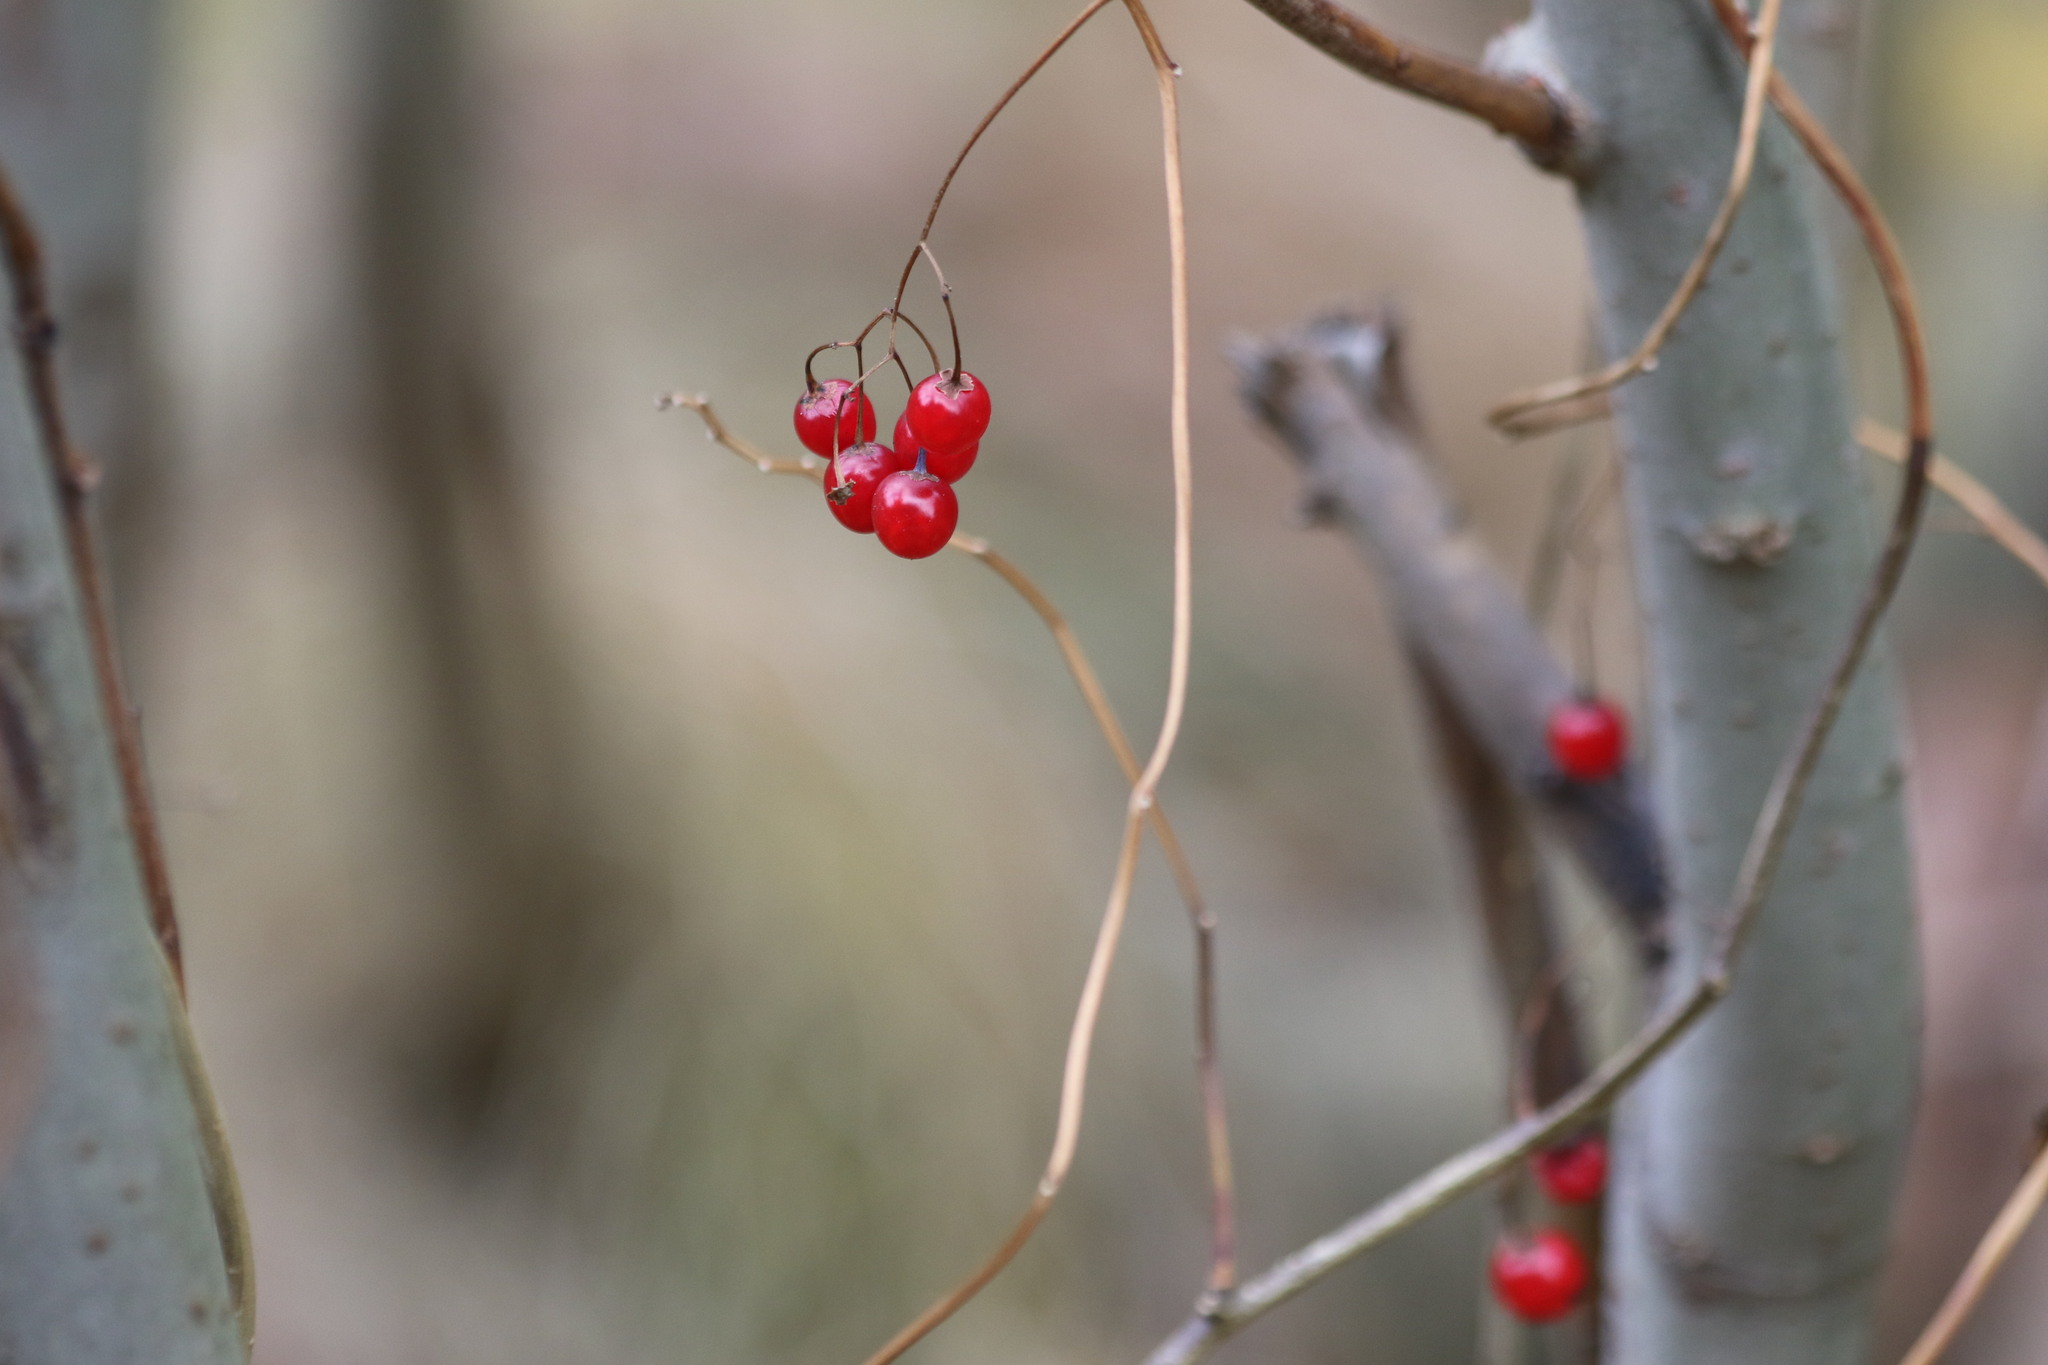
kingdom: Plantae
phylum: Tracheophyta
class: Magnoliopsida
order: Solanales
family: Solanaceae
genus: Solanum
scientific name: Solanum dulcamara
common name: Climbing nightshade
